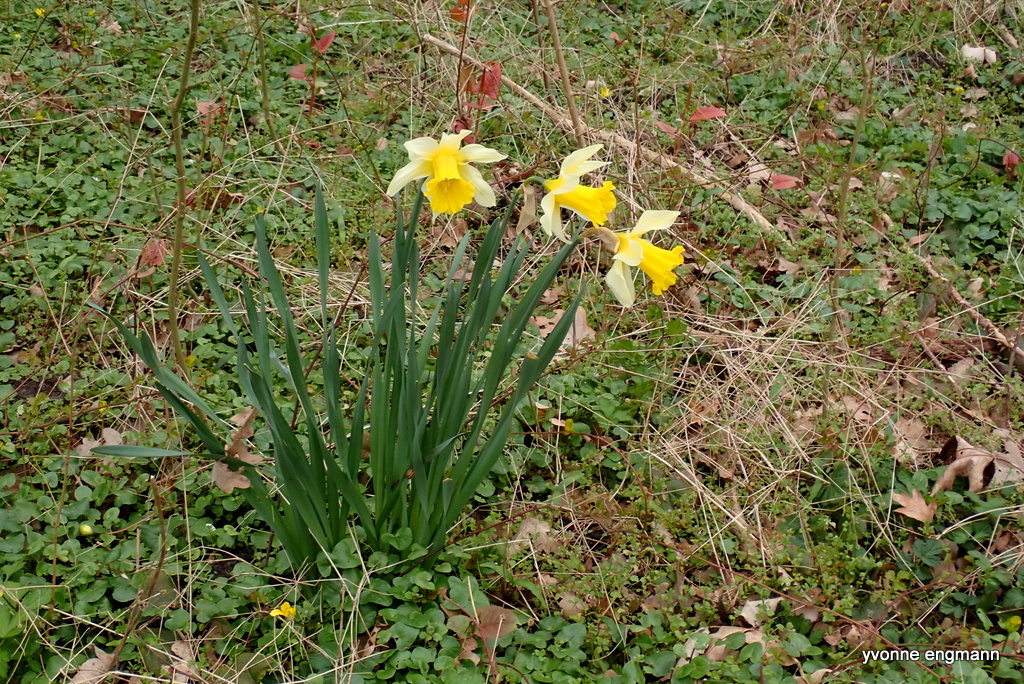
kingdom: Plantae
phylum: Tracheophyta
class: Liliopsida
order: Asparagales
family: Amaryllidaceae
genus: Narcissus
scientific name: Narcissus pseudonarcissus
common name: Daffodil
